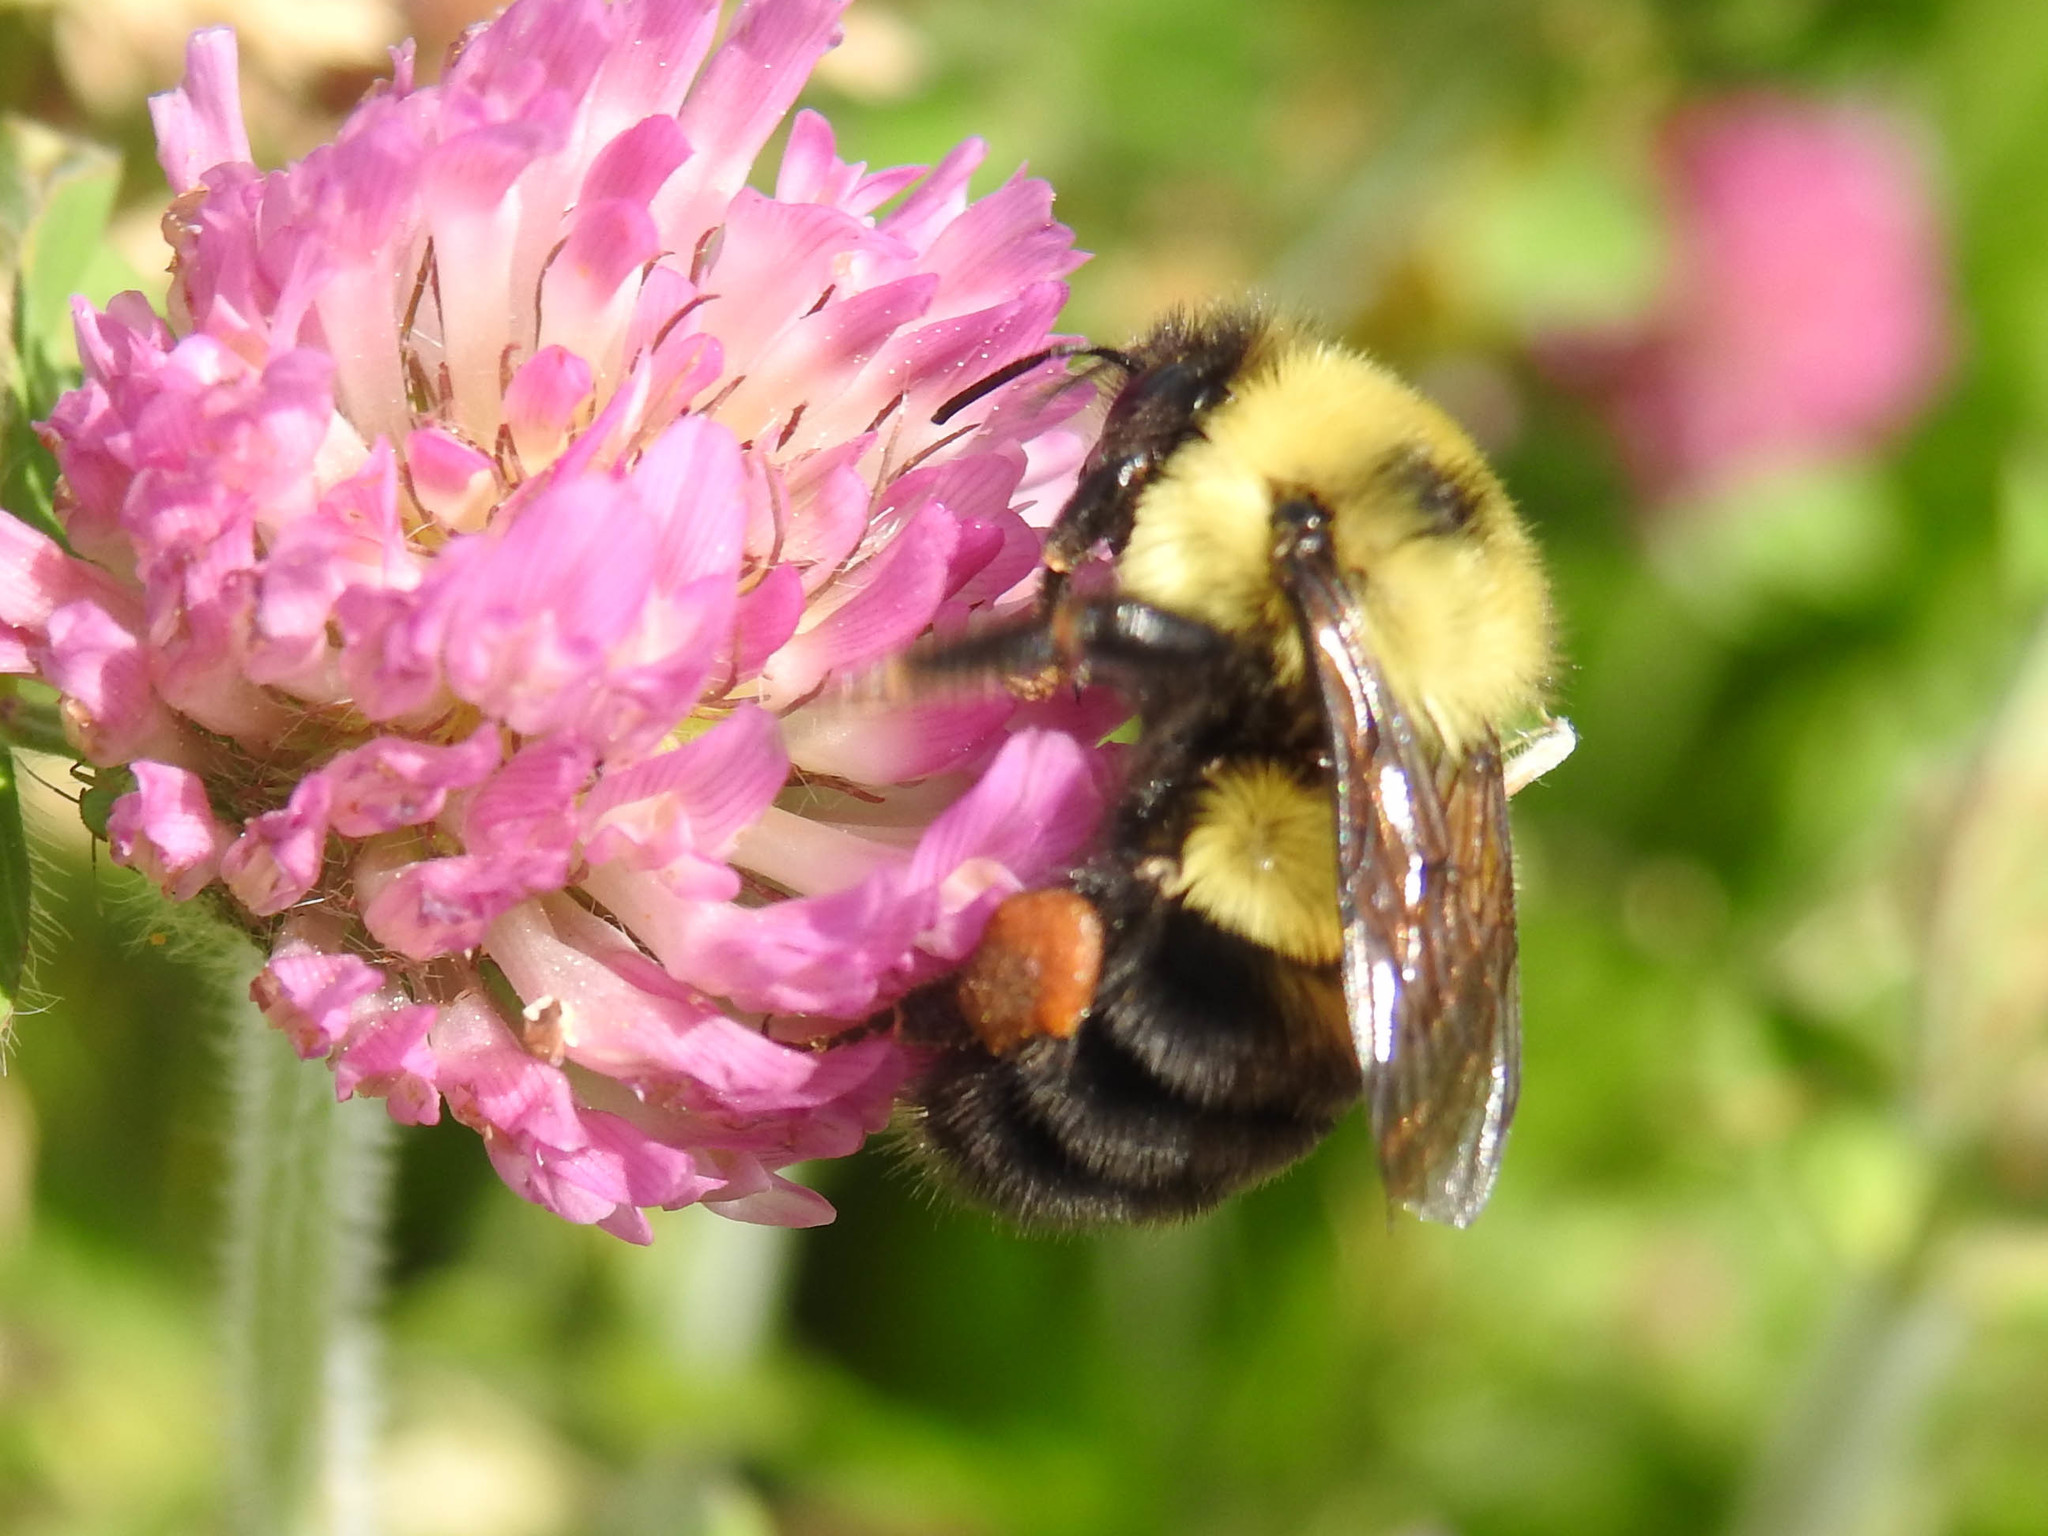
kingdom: Animalia
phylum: Arthropoda
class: Insecta
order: Hymenoptera
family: Apidae
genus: Bombus
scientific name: Bombus bimaculatus
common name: Two-spotted bumble bee
